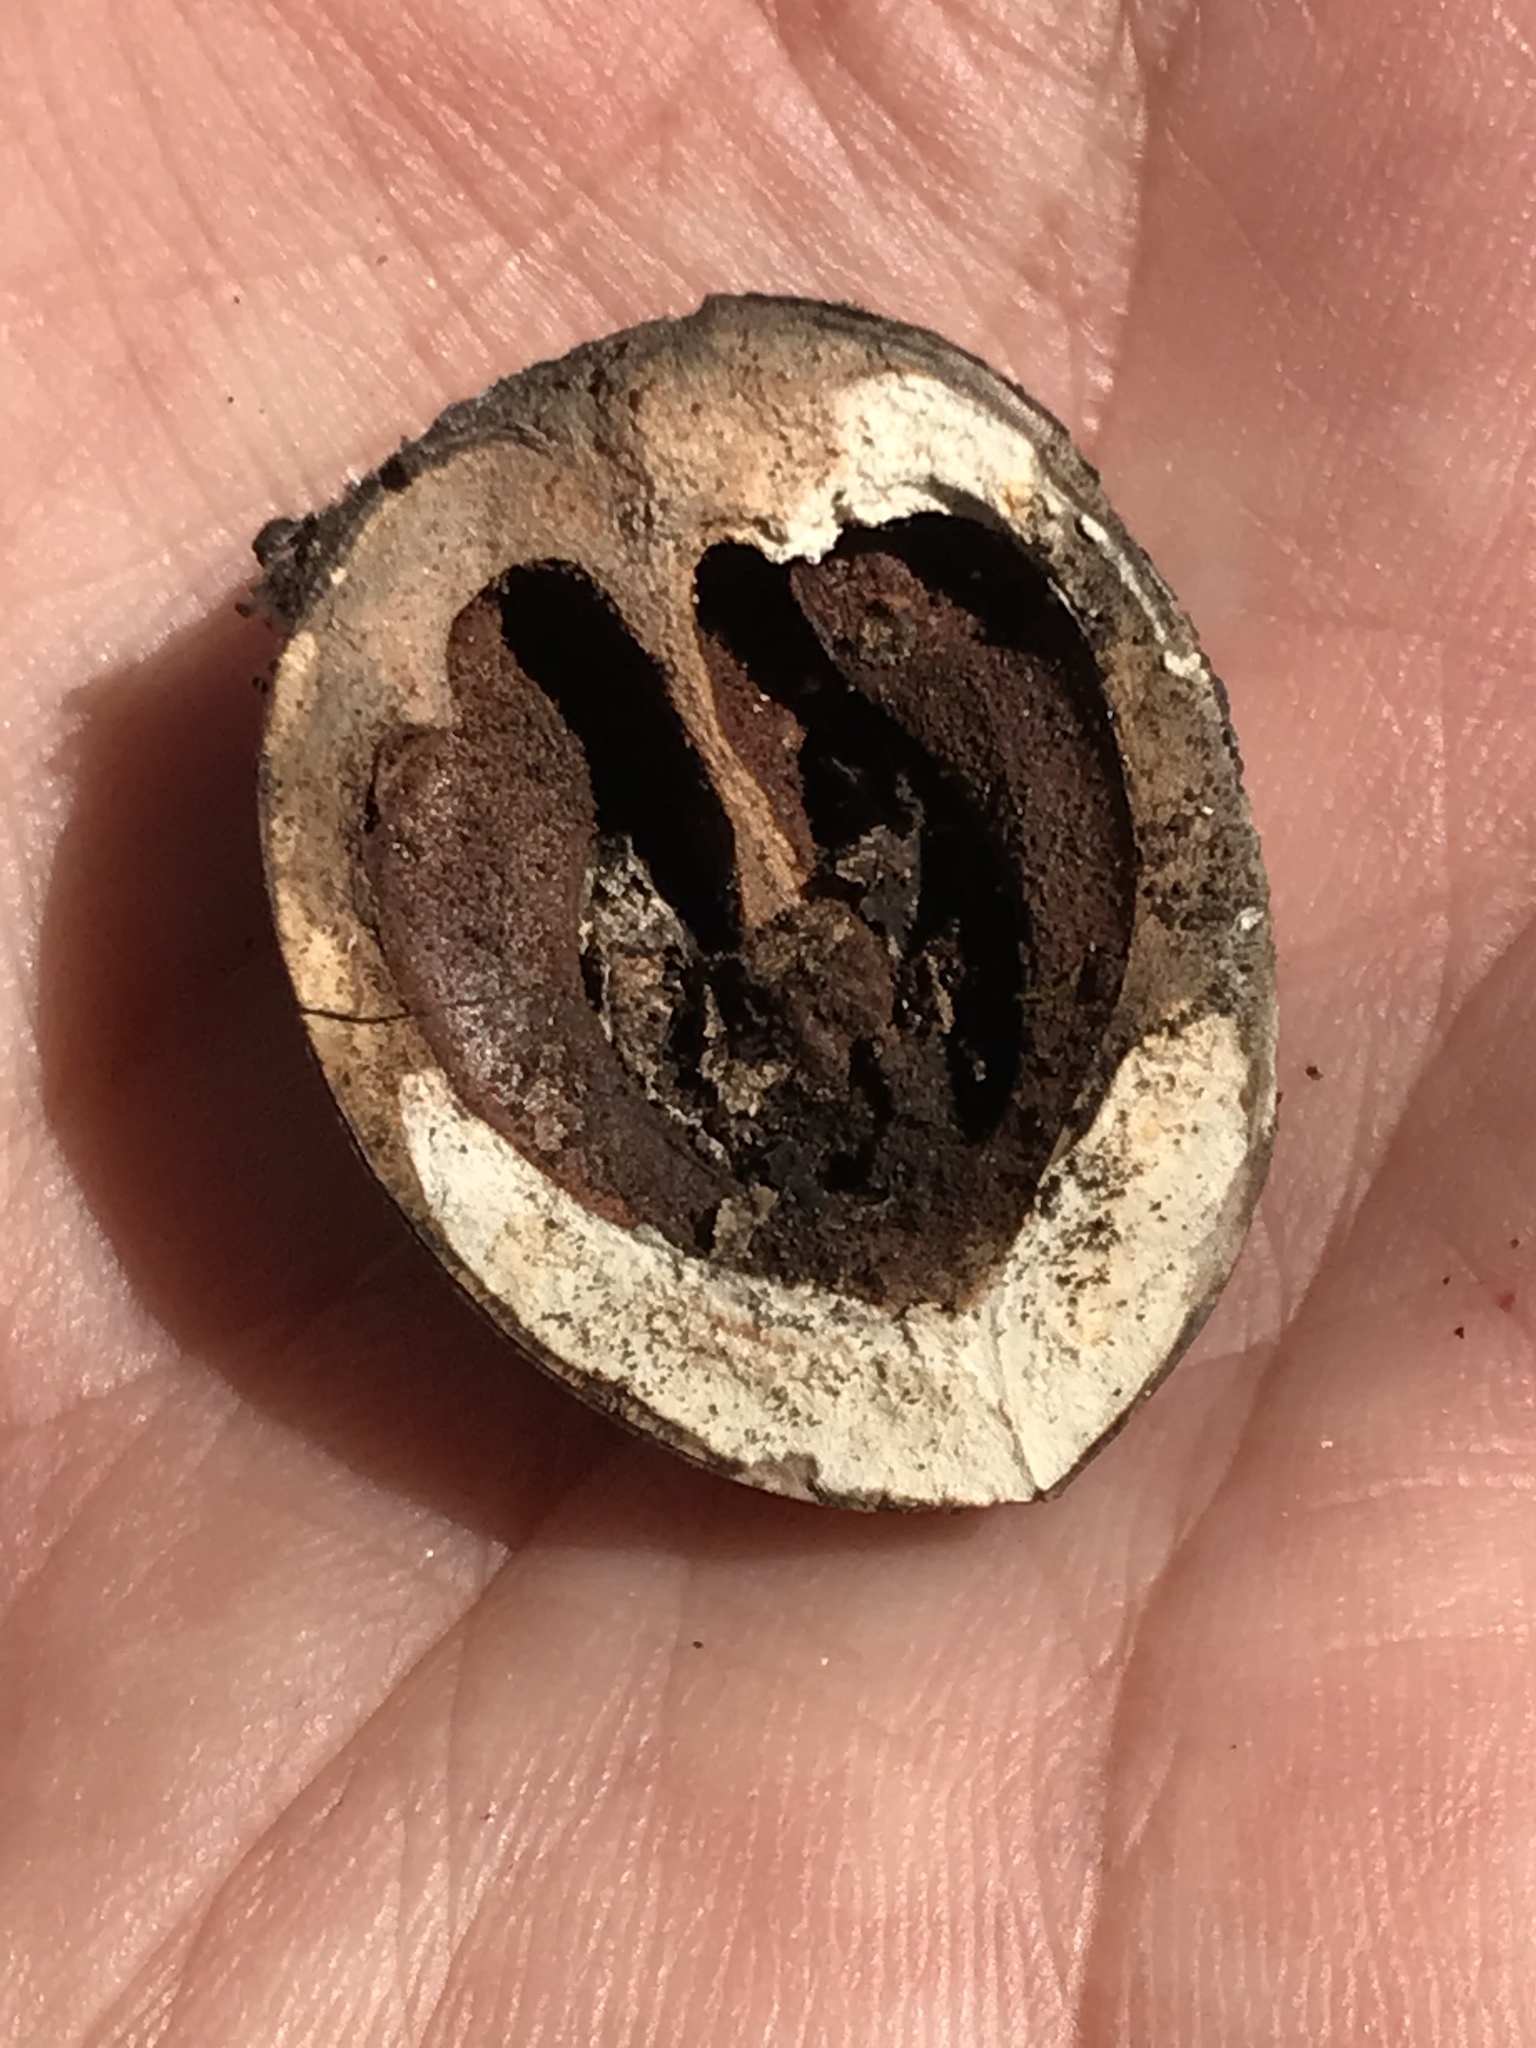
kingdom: Plantae
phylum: Tracheophyta
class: Magnoliopsida
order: Fagales
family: Juglandaceae
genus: Carya
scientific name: Carya ovata
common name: Shagbark hickory
